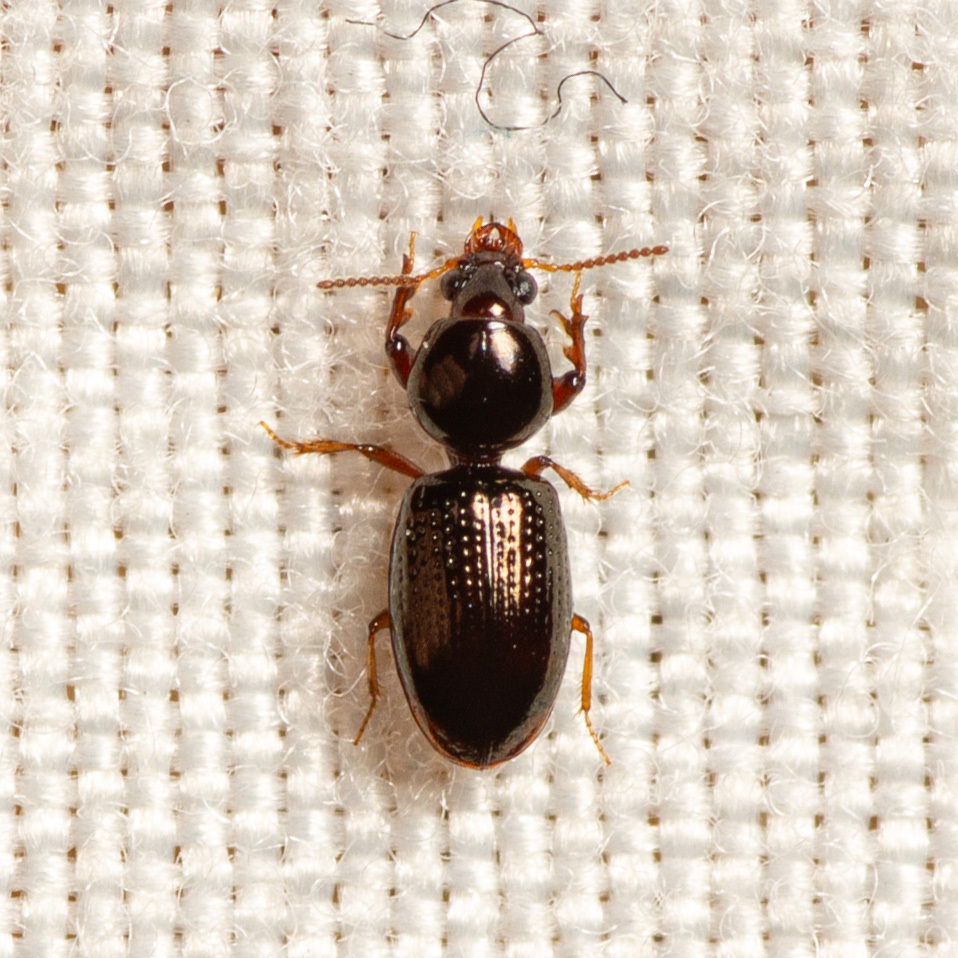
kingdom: Animalia
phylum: Arthropoda
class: Insecta
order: Coleoptera
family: Carabidae
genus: Dyschirius
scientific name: Dyschirius abbreviatus
